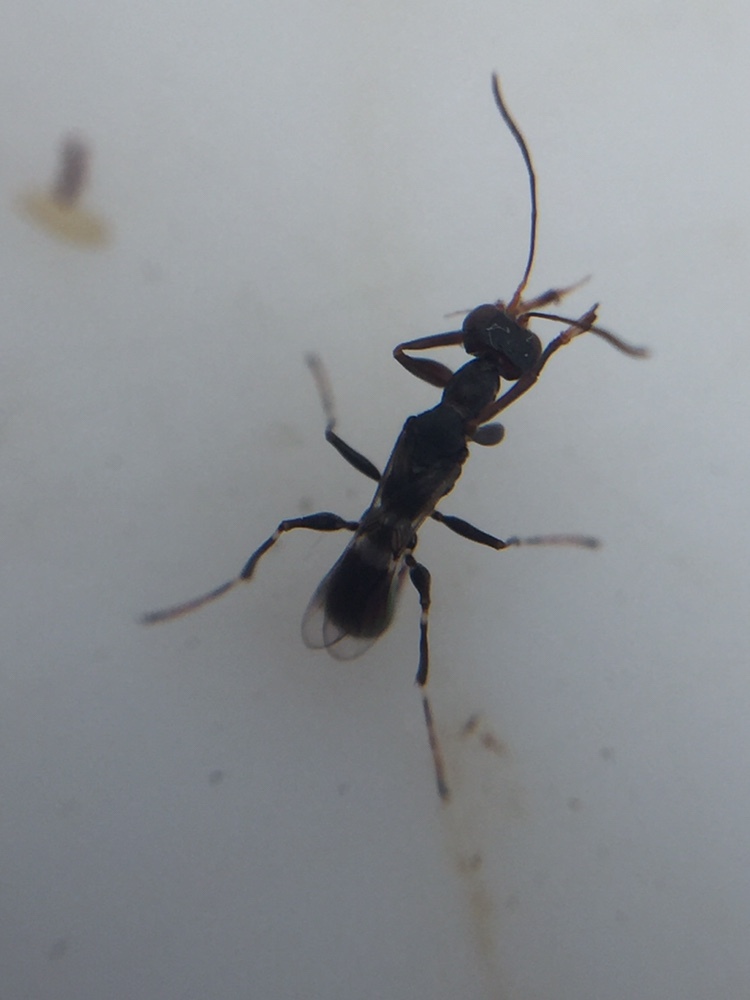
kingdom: Animalia
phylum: Arthropoda
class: Insecta
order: Hymenoptera
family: Dryinidae
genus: Dryinus
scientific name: Dryinus koebelei
